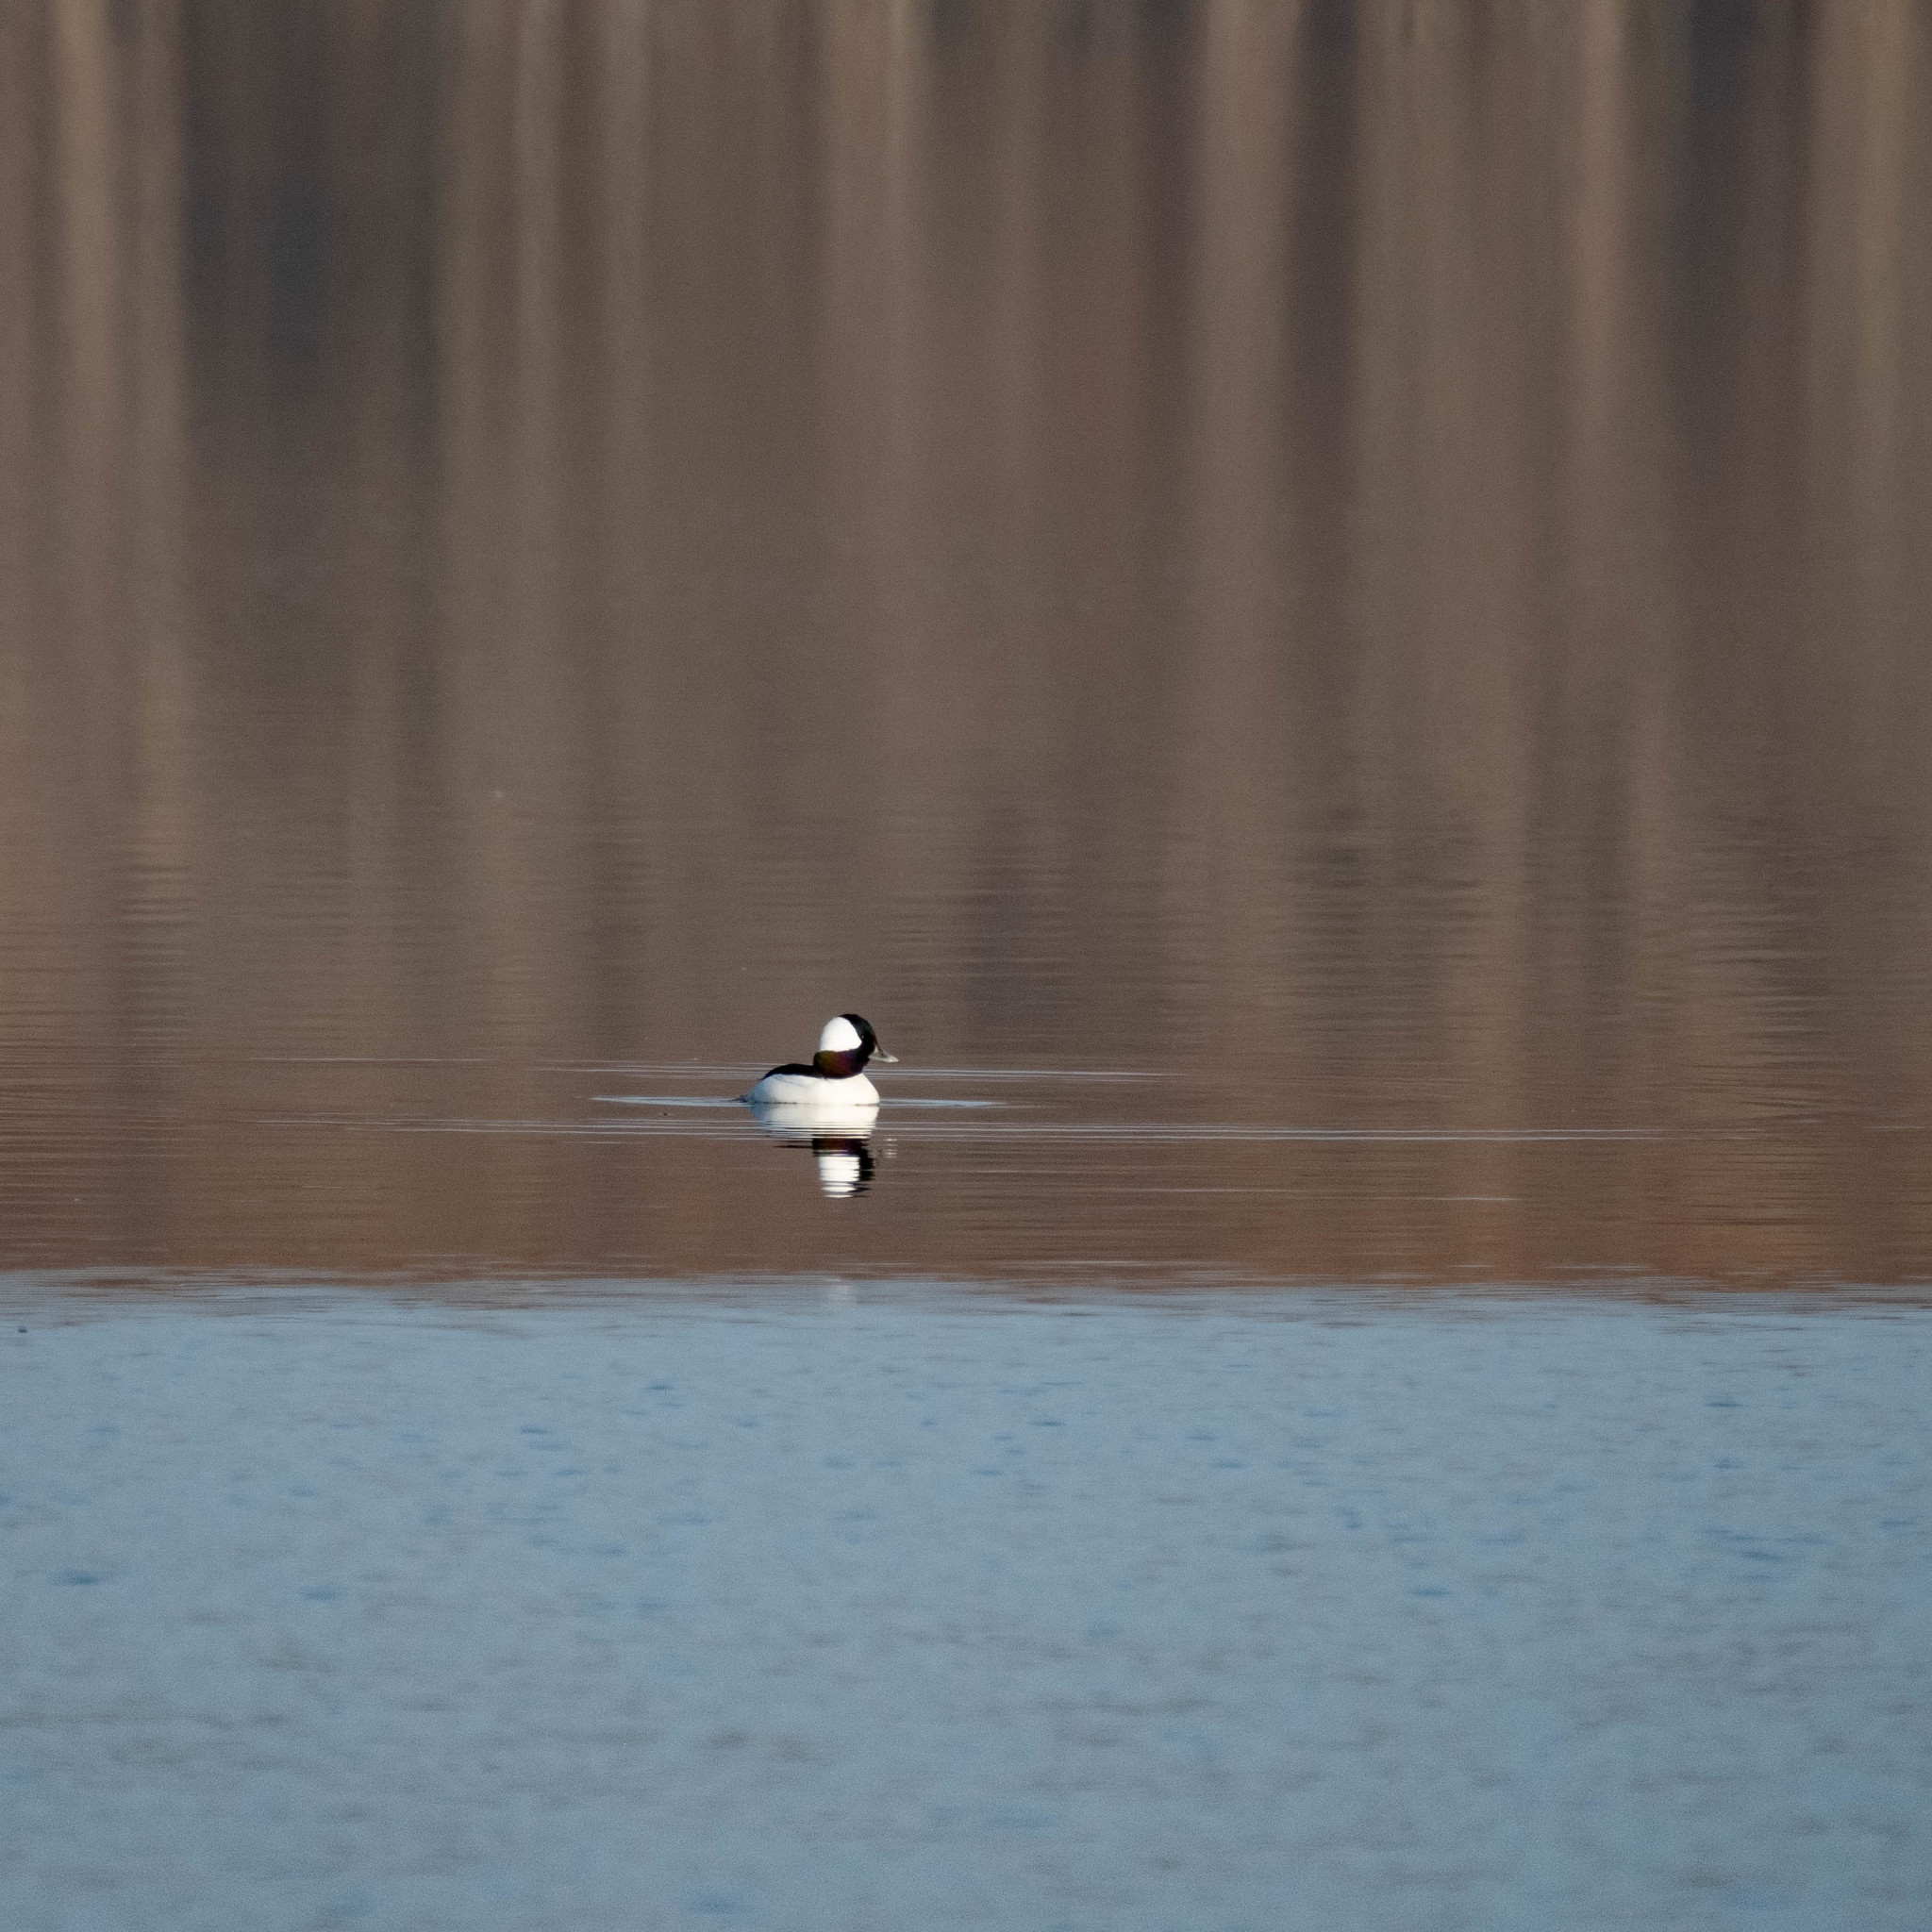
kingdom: Animalia
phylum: Chordata
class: Aves
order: Anseriformes
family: Anatidae
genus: Bucephala
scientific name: Bucephala albeola
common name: Bufflehead
